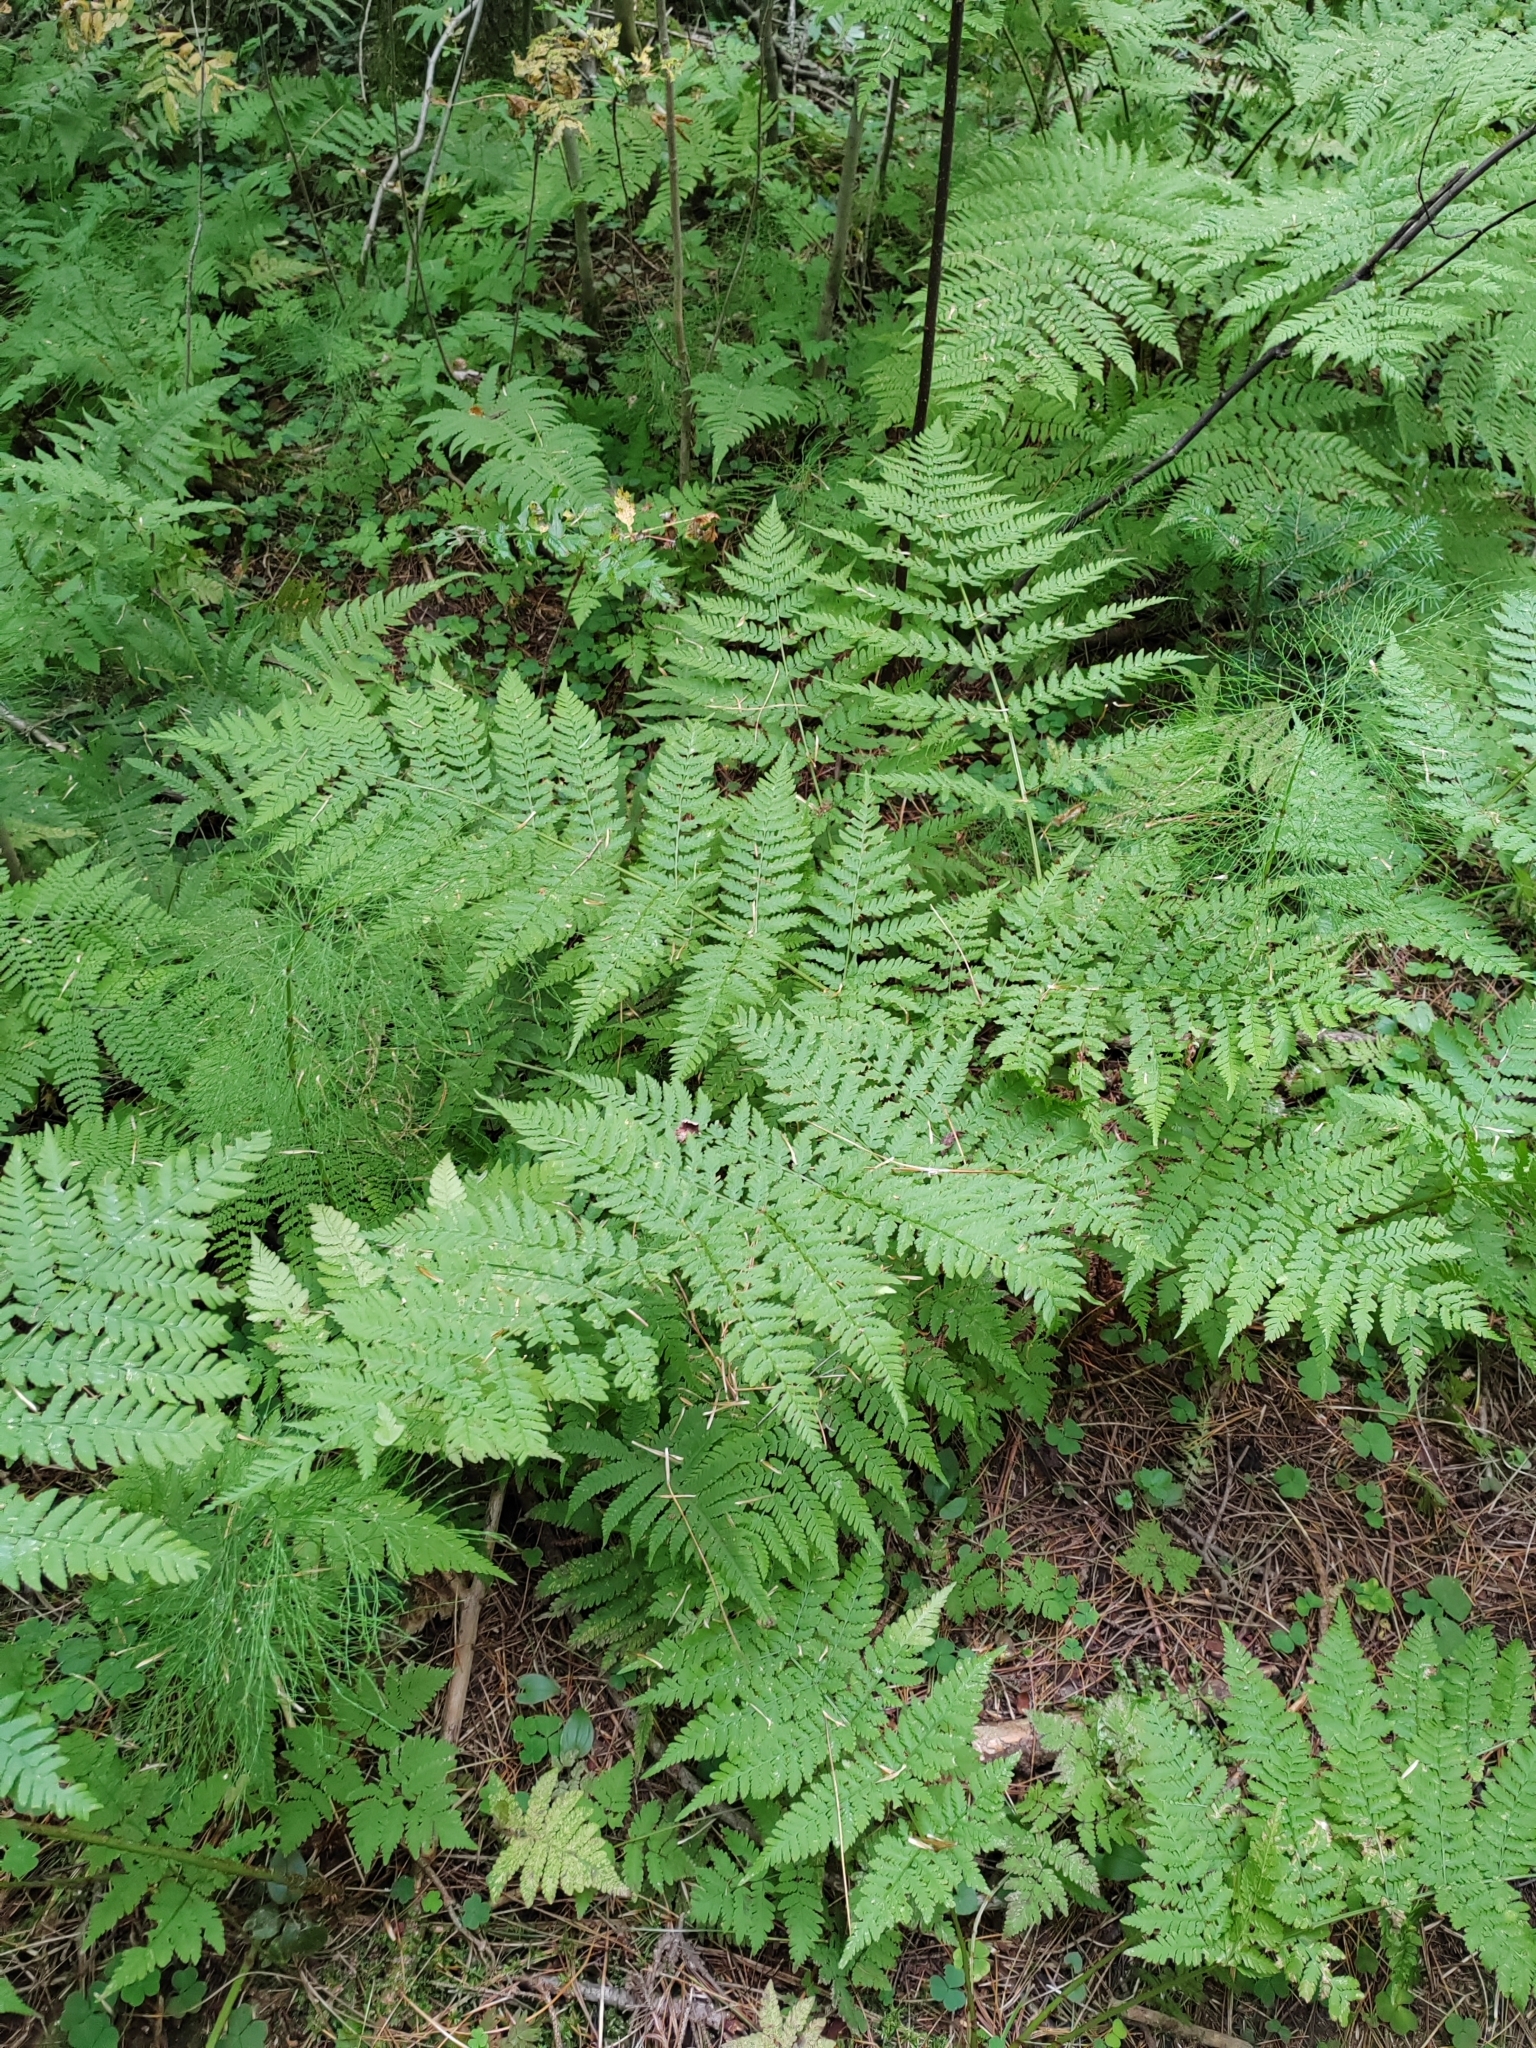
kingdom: Plantae
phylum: Tracheophyta
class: Polypodiopsida
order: Polypodiales
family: Dryopteridaceae
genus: Dryopteris
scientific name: Dryopteris expansa
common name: Northern buckler fern
